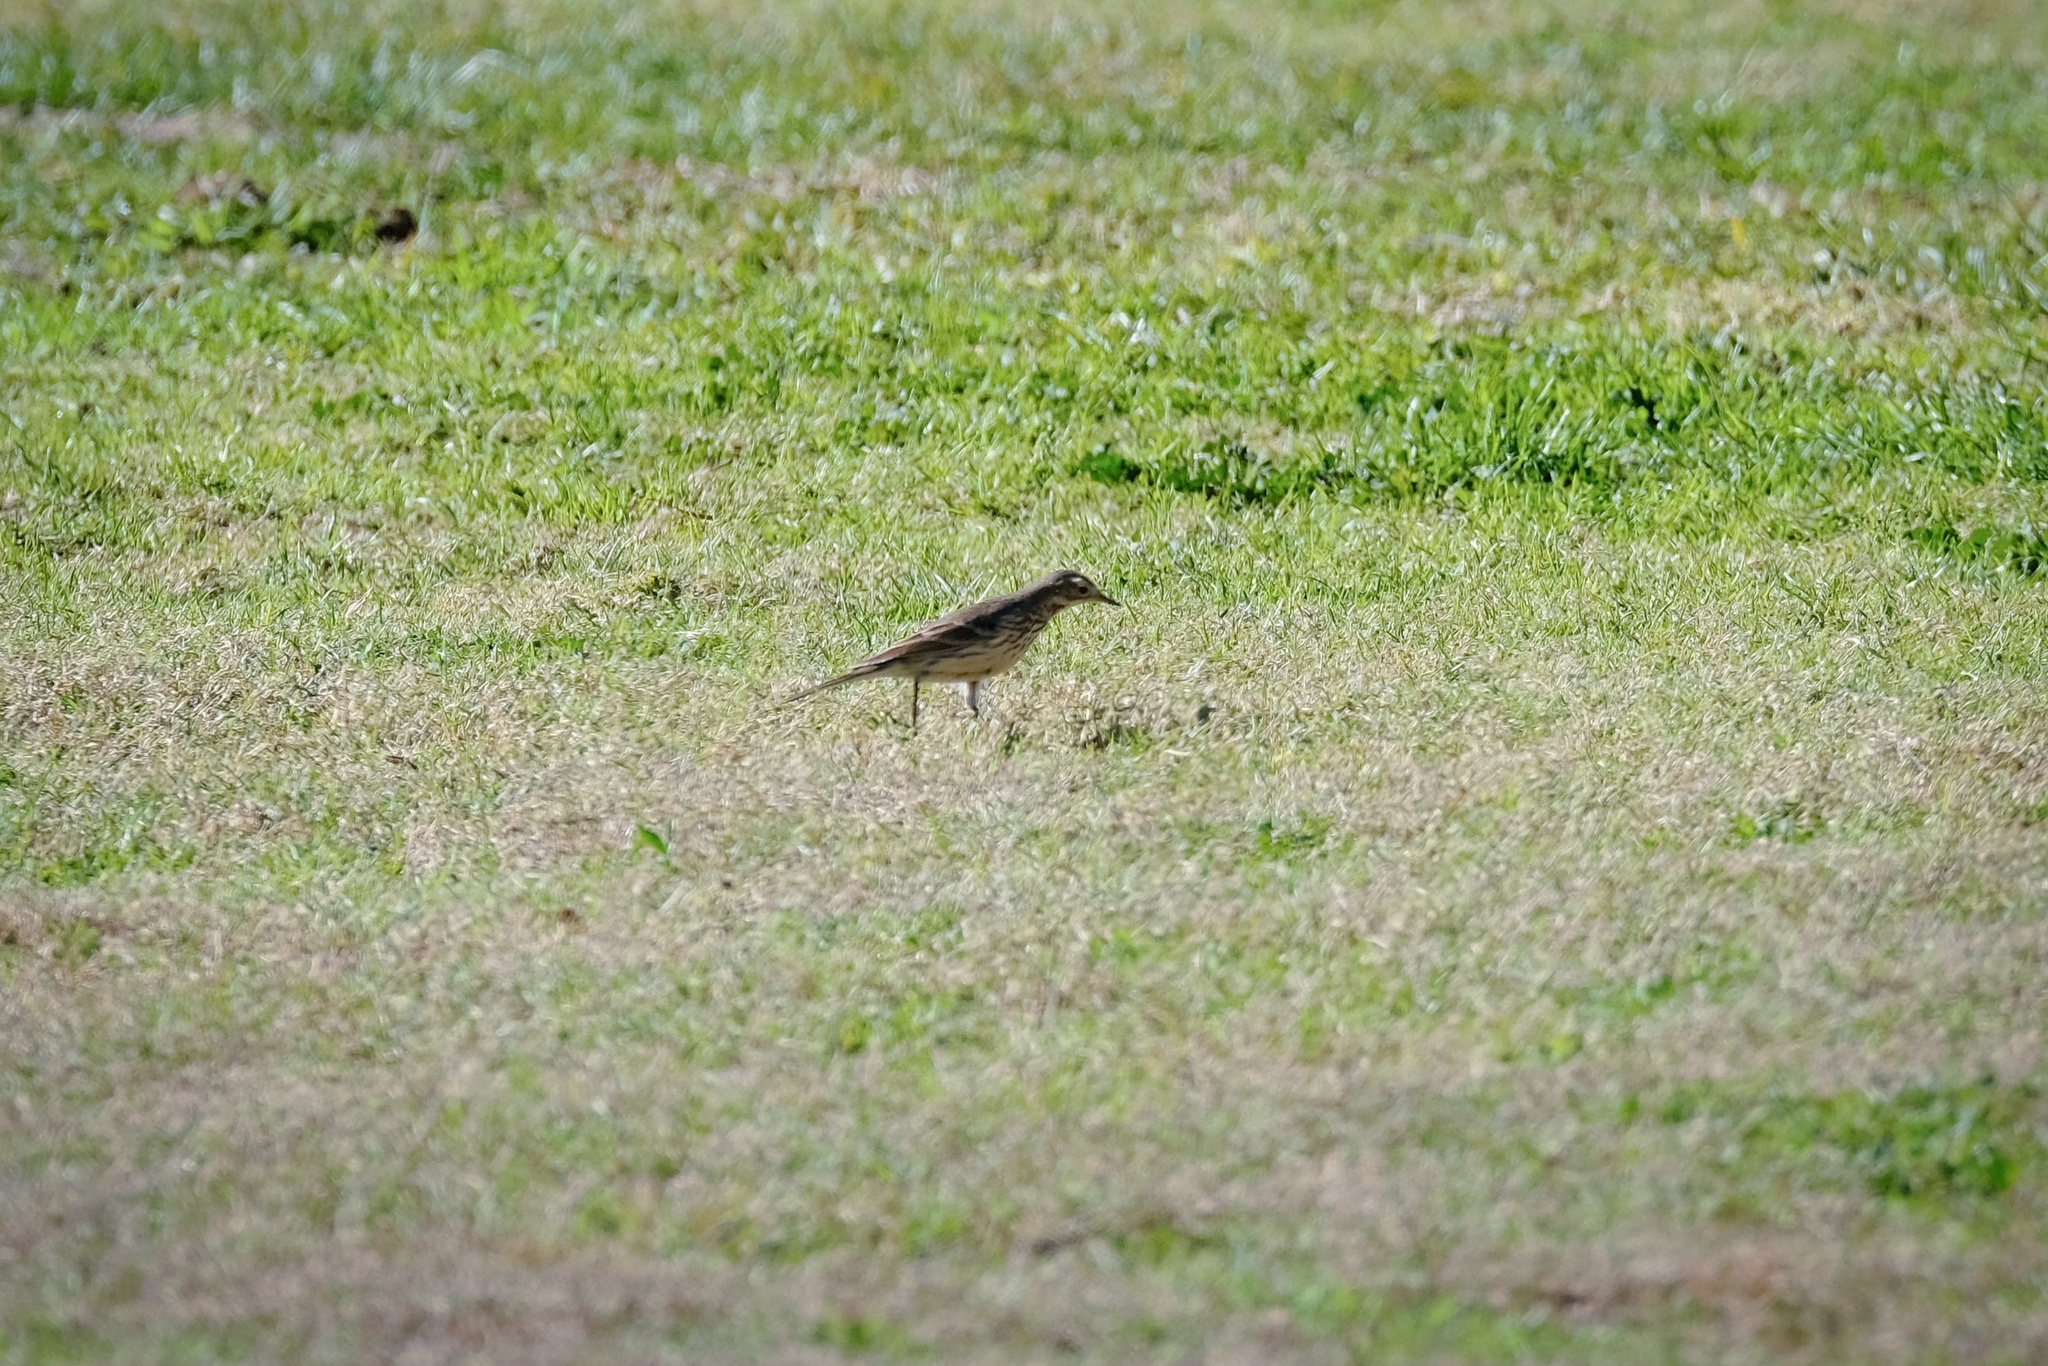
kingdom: Animalia
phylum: Chordata
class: Aves
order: Passeriformes
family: Motacillidae
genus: Anthus
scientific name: Anthus rubescens
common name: Buff-bellied pipit
